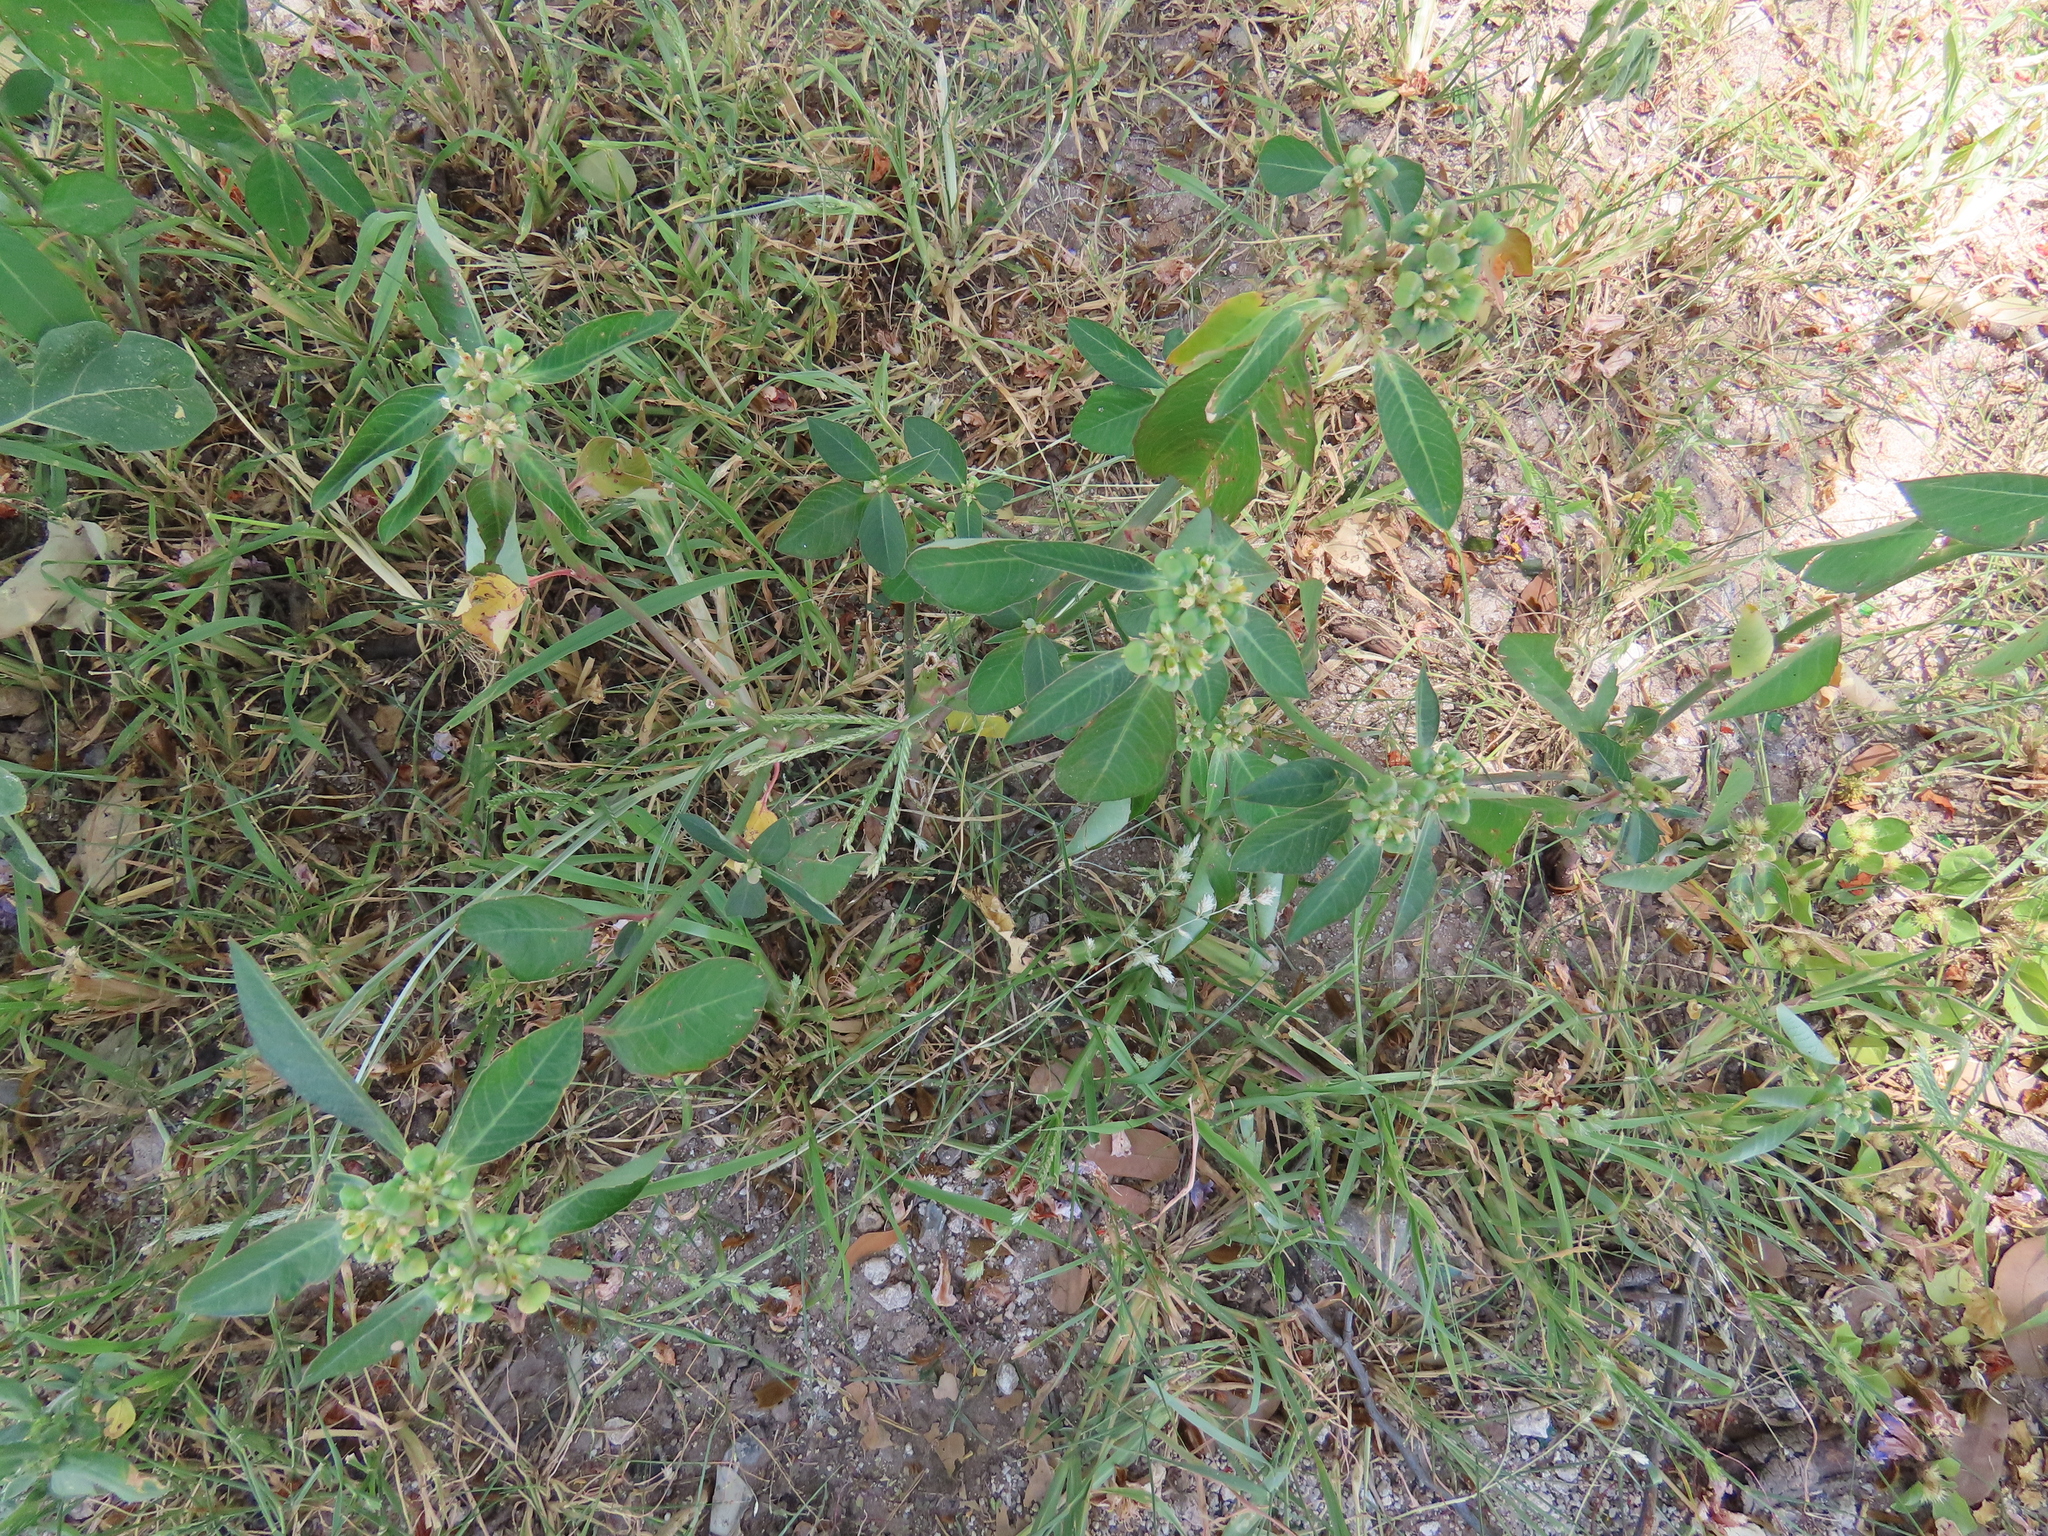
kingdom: Plantae
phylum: Tracheophyta
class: Magnoliopsida
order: Malpighiales
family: Euphorbiaceae
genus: Euphorbia
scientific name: Euphorbia heterophylla
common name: Mexican fireplant
